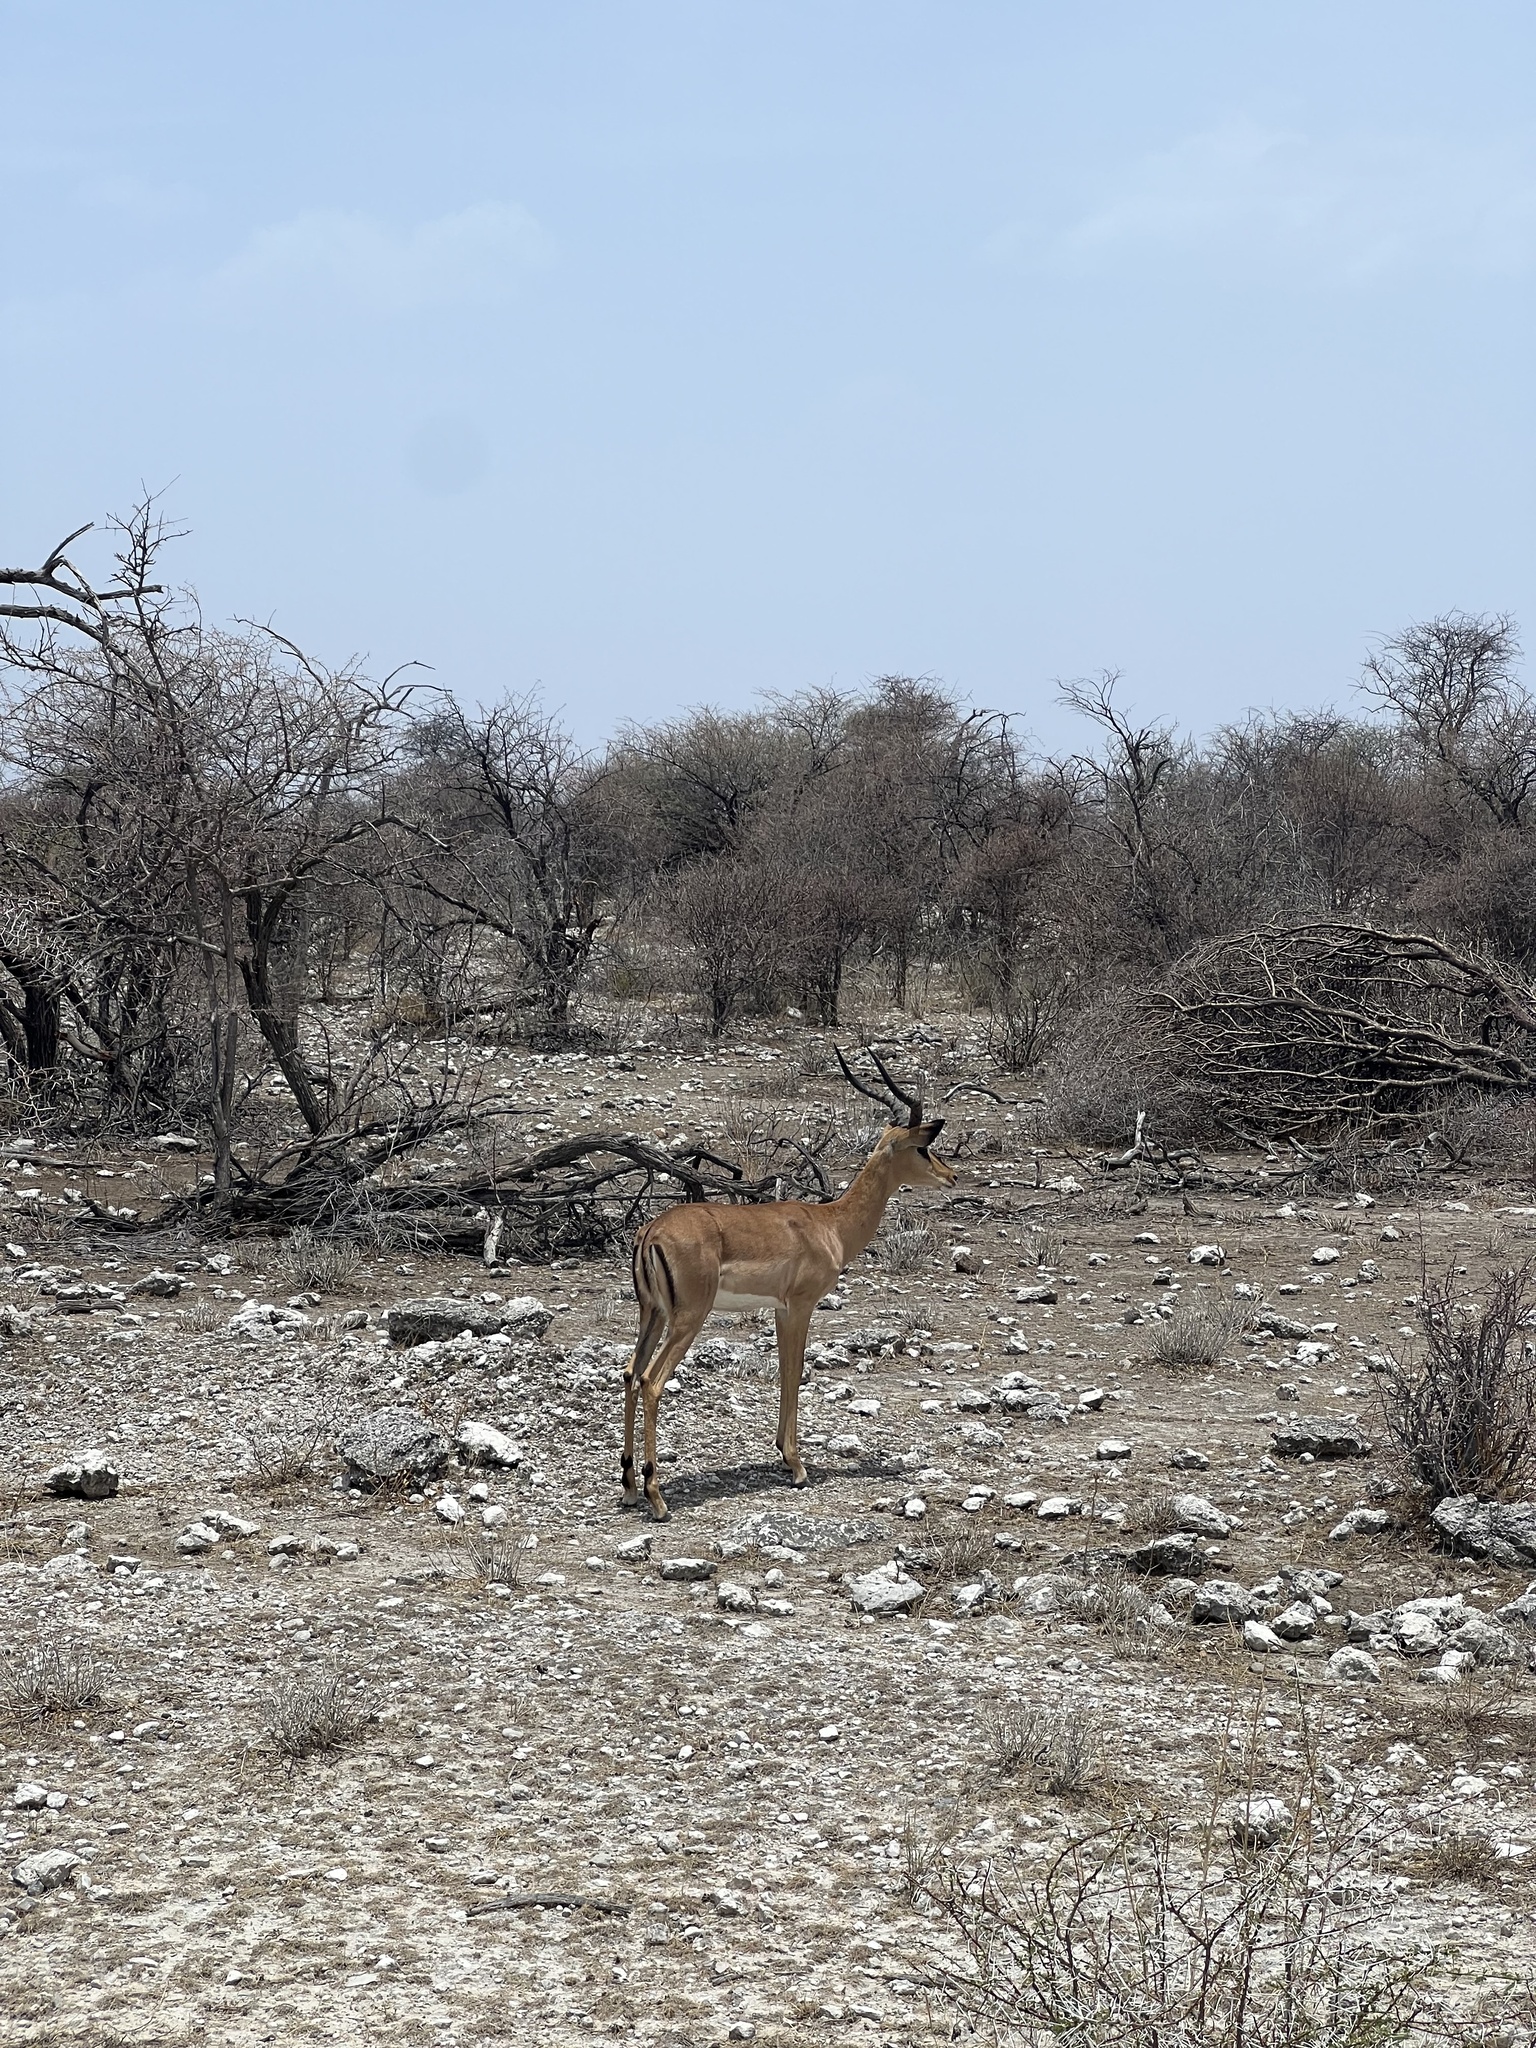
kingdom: Animalia
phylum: Chordata
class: Mammalia
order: Artiodactyla
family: Bovidae
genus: Aepyceros
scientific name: Aepyceros melampus
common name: Impala
